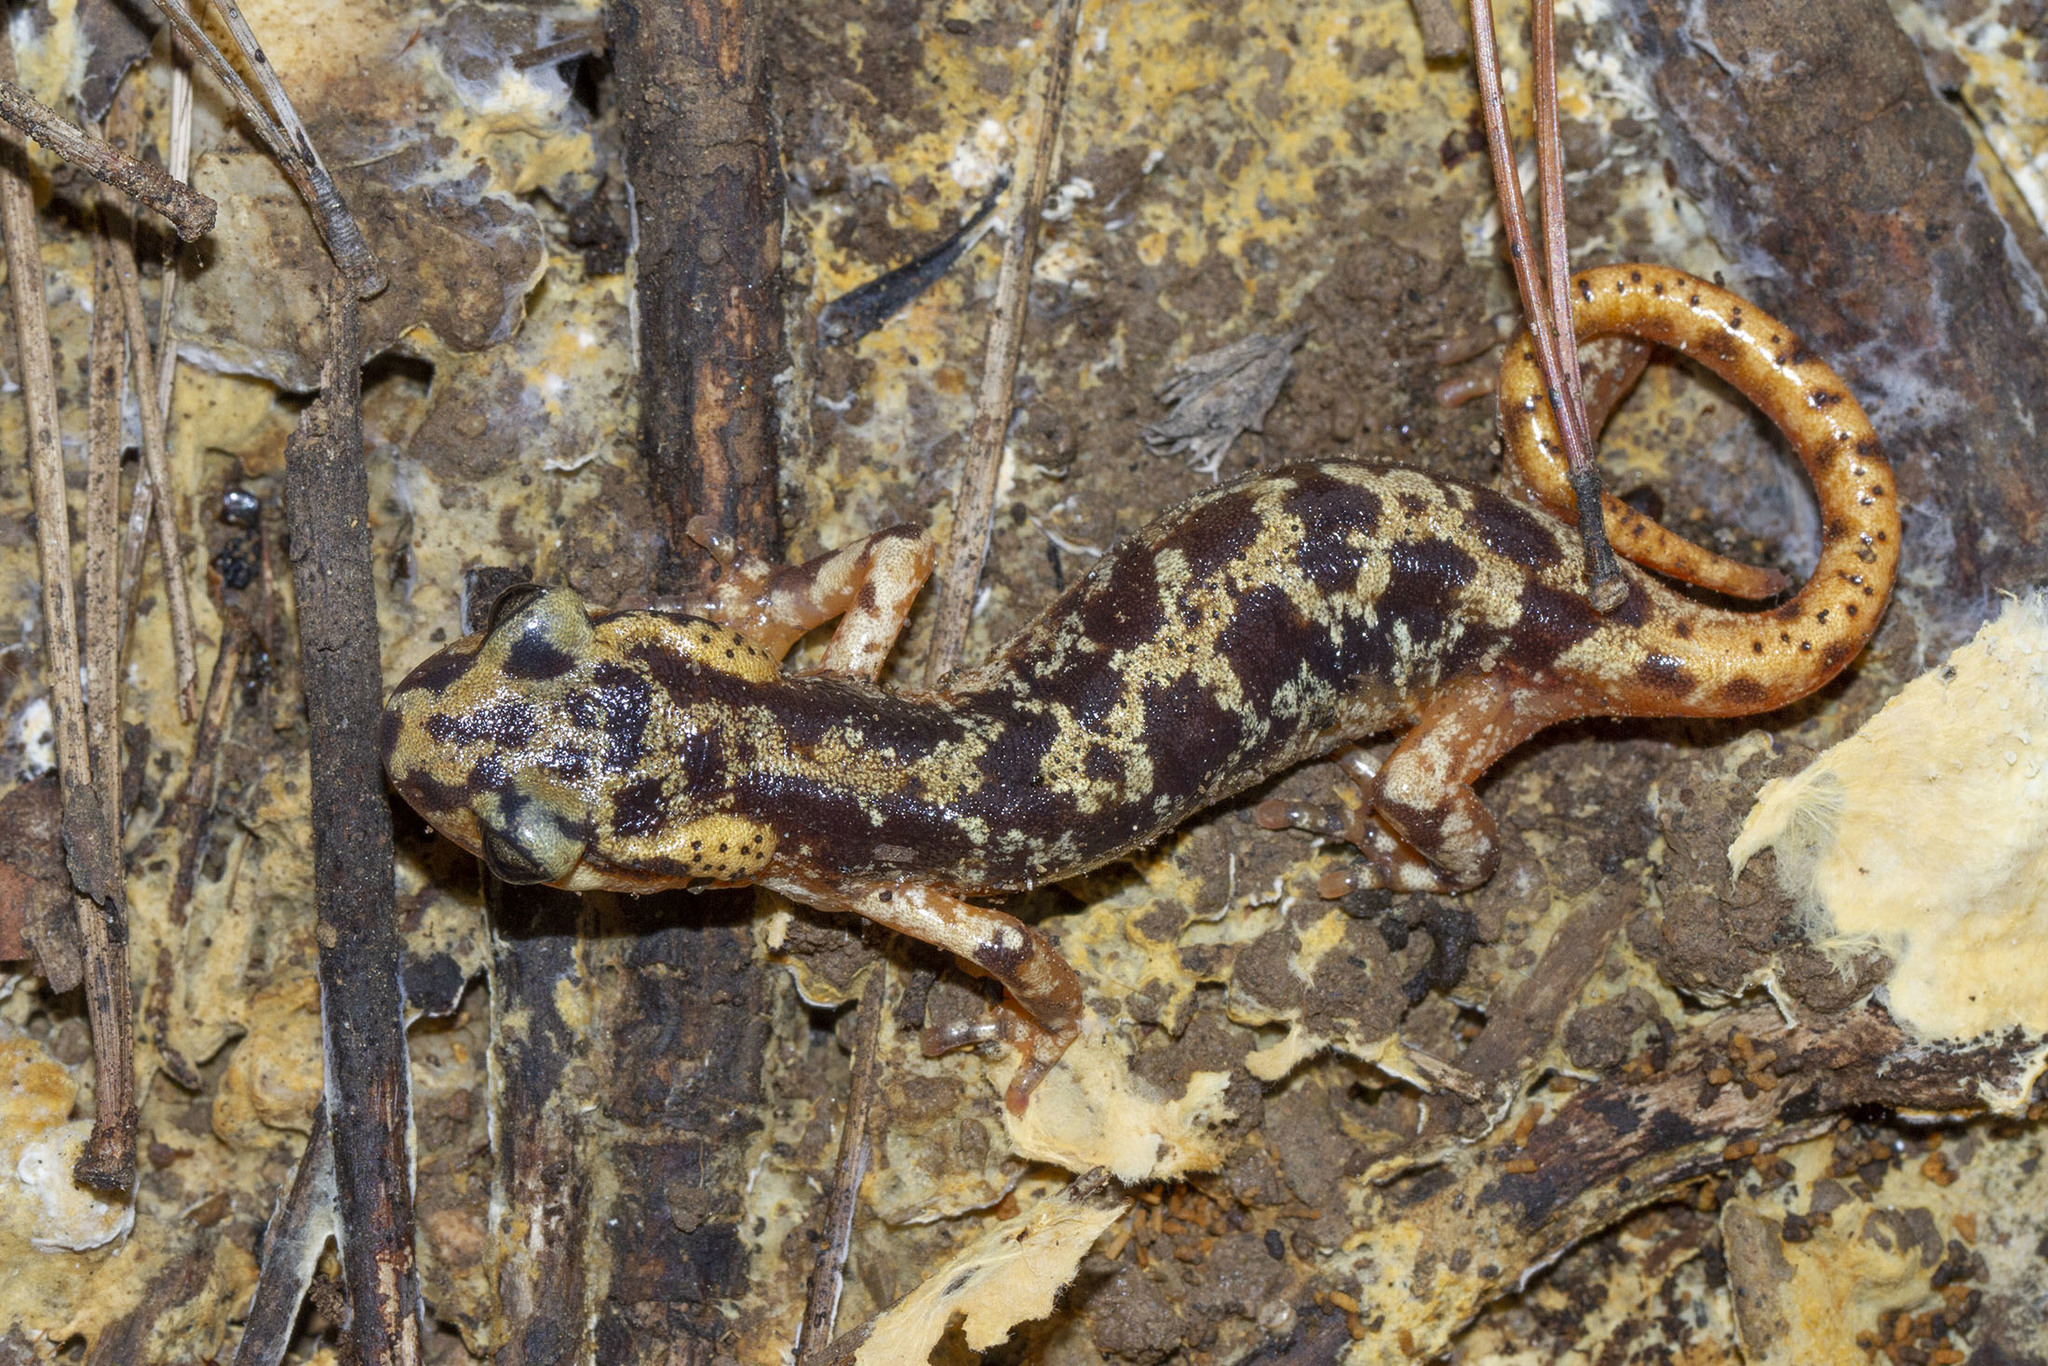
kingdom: Animalia
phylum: Chordata
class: Amphibia
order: Caudata
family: Salamandridae
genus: Lyciasalamandra
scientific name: Lyciasalamandra luschani
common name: Luschan's salamander
